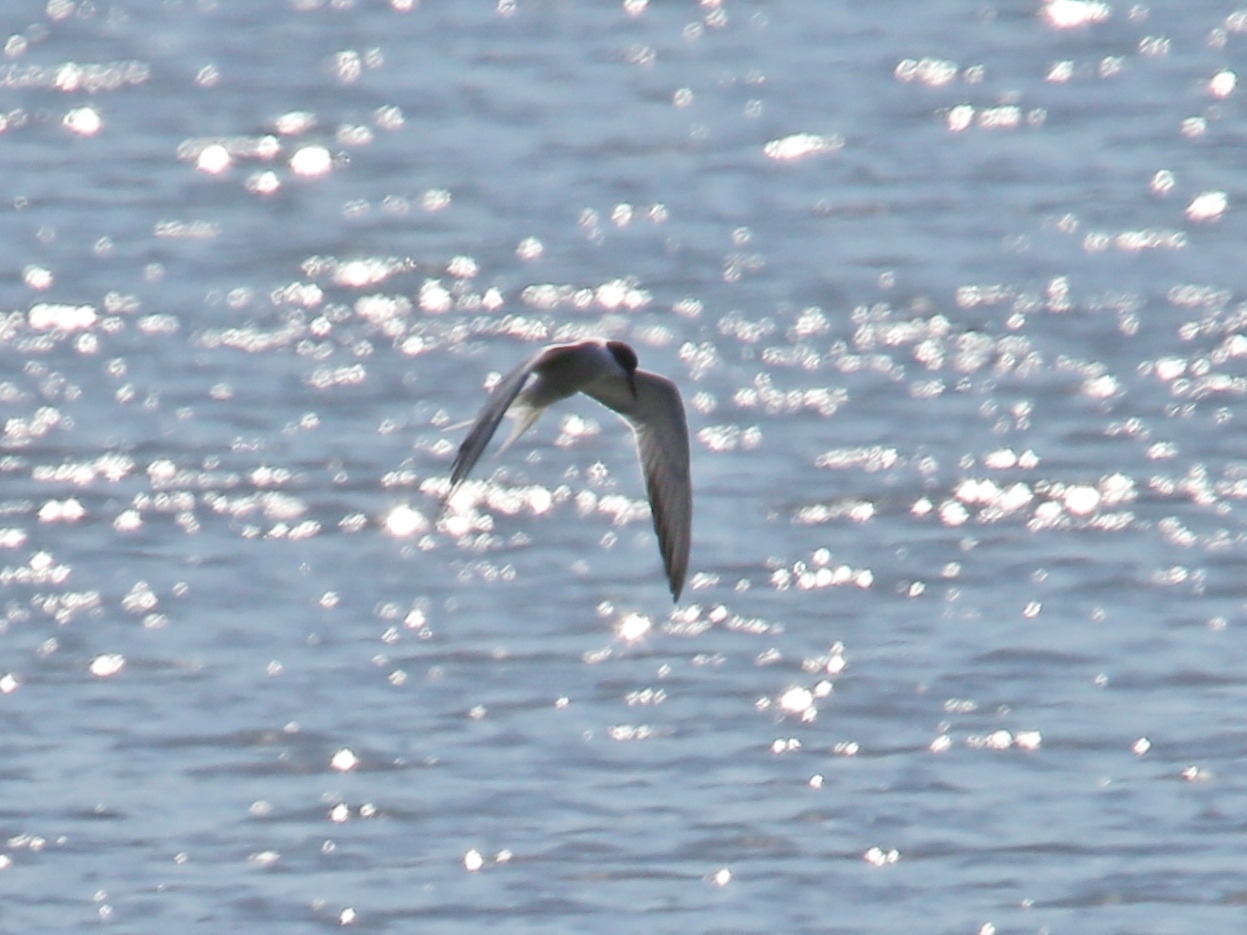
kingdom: Animalia
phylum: Chordata
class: Aves
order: Charadriiformes
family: Laridae
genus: Sterna
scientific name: Sterna hirundo
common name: Common tern
